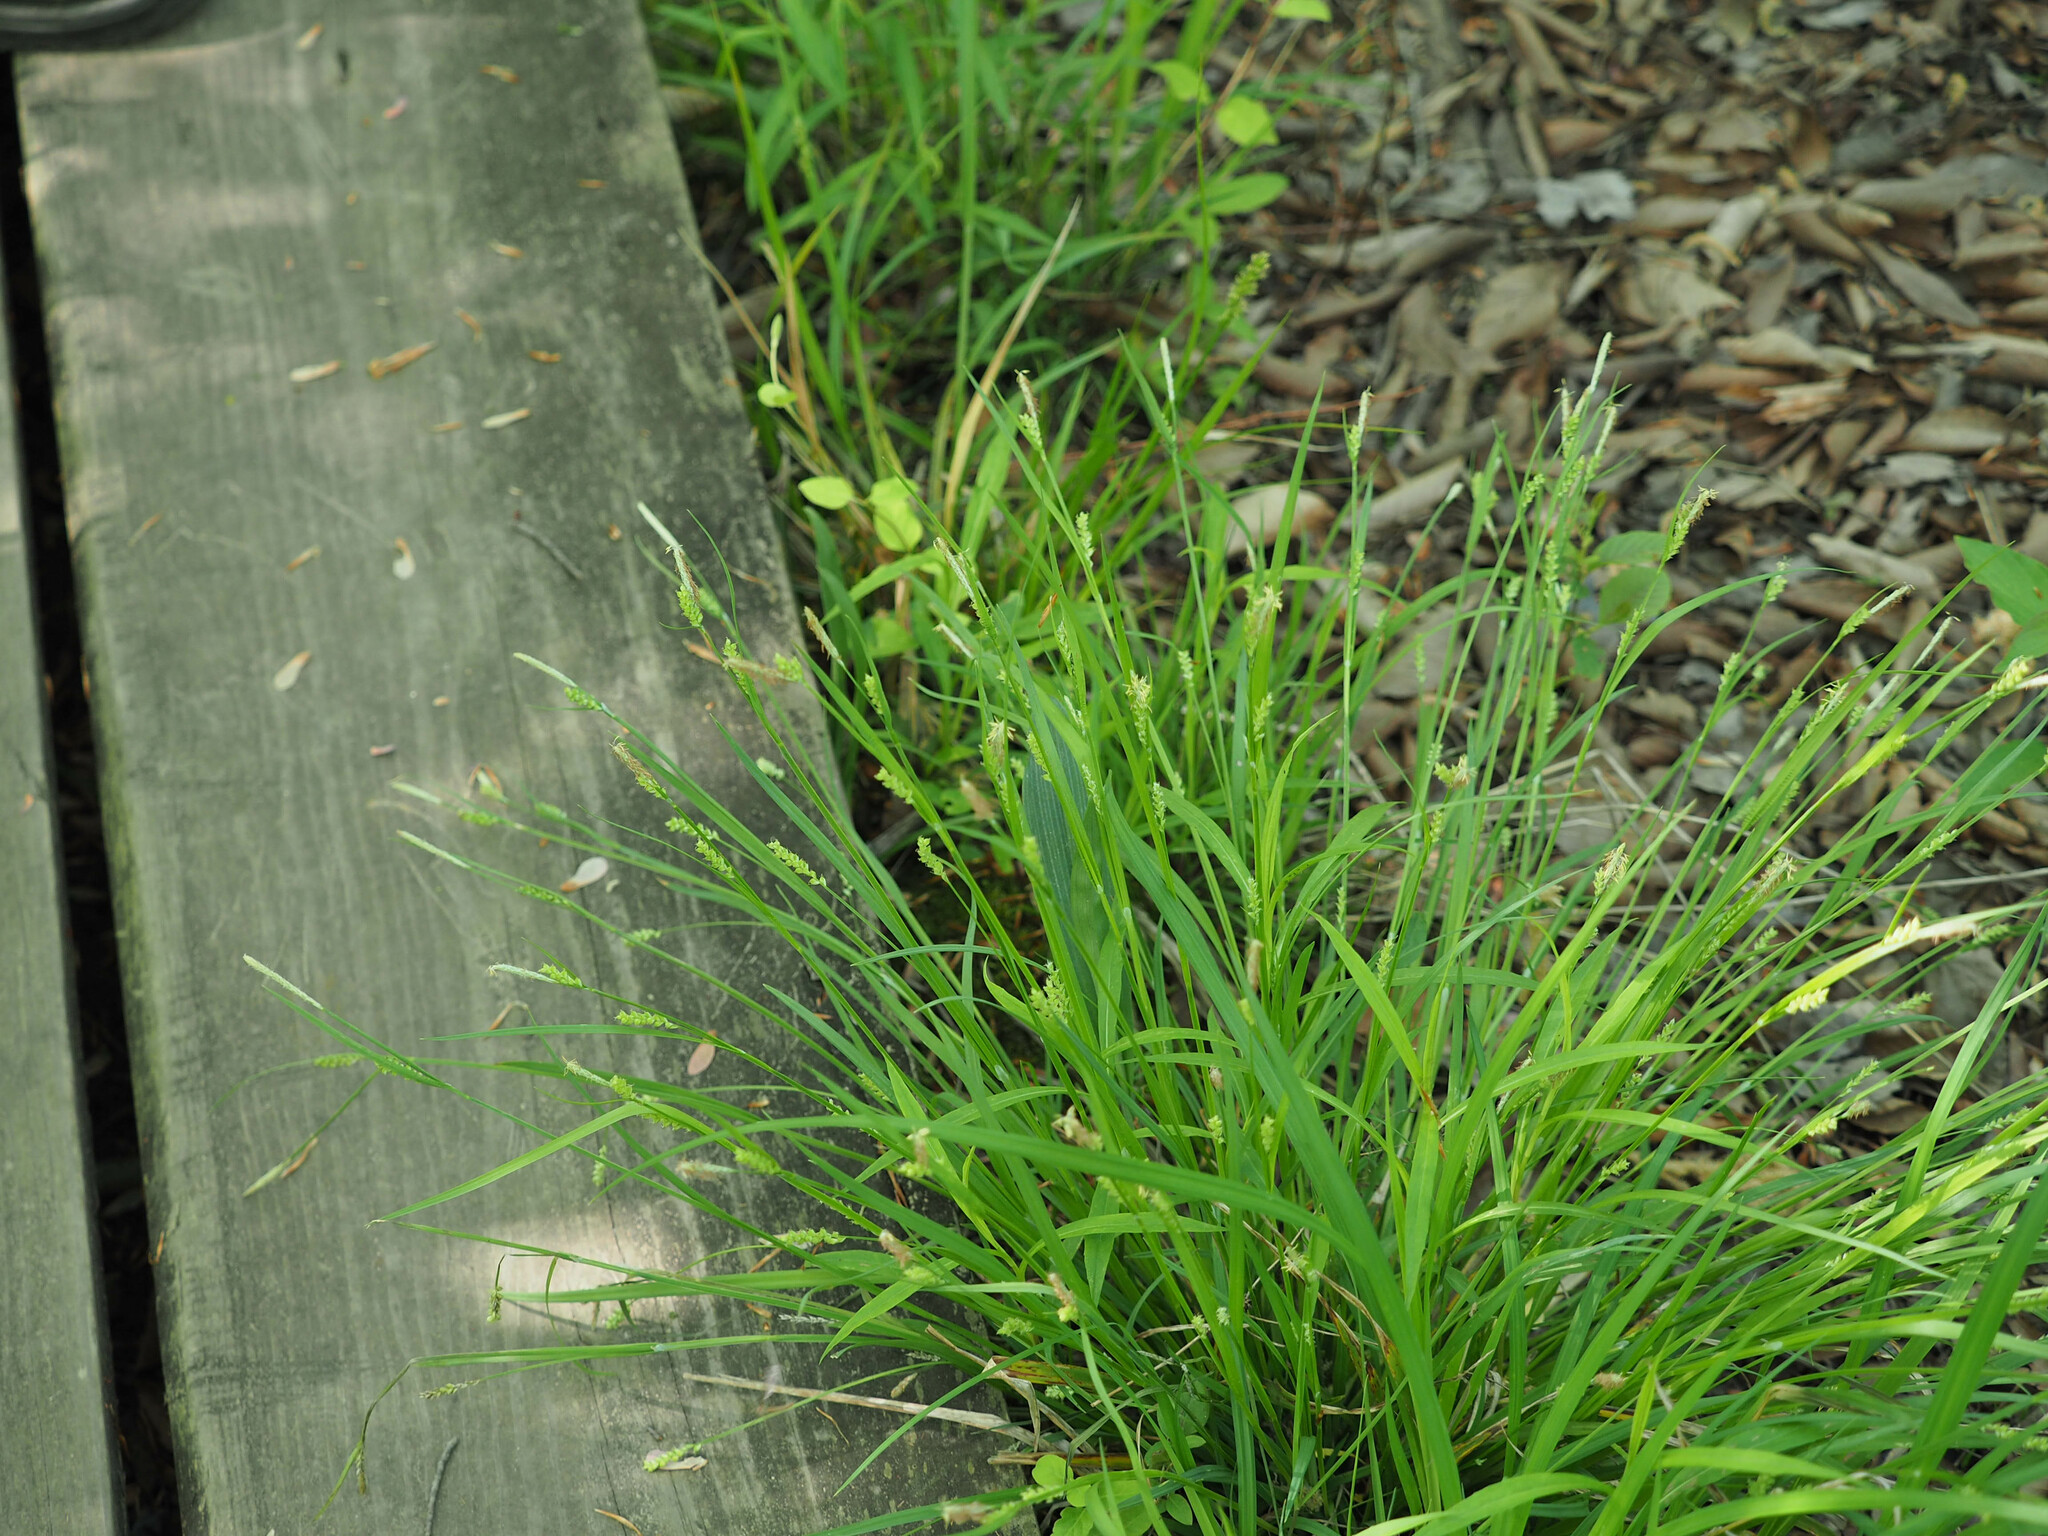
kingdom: Plantae
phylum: Tracheophyta
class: Liliopsida
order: Poales
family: Cyperaceae
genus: Carex
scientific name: Carex blanda
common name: Bland sedge
